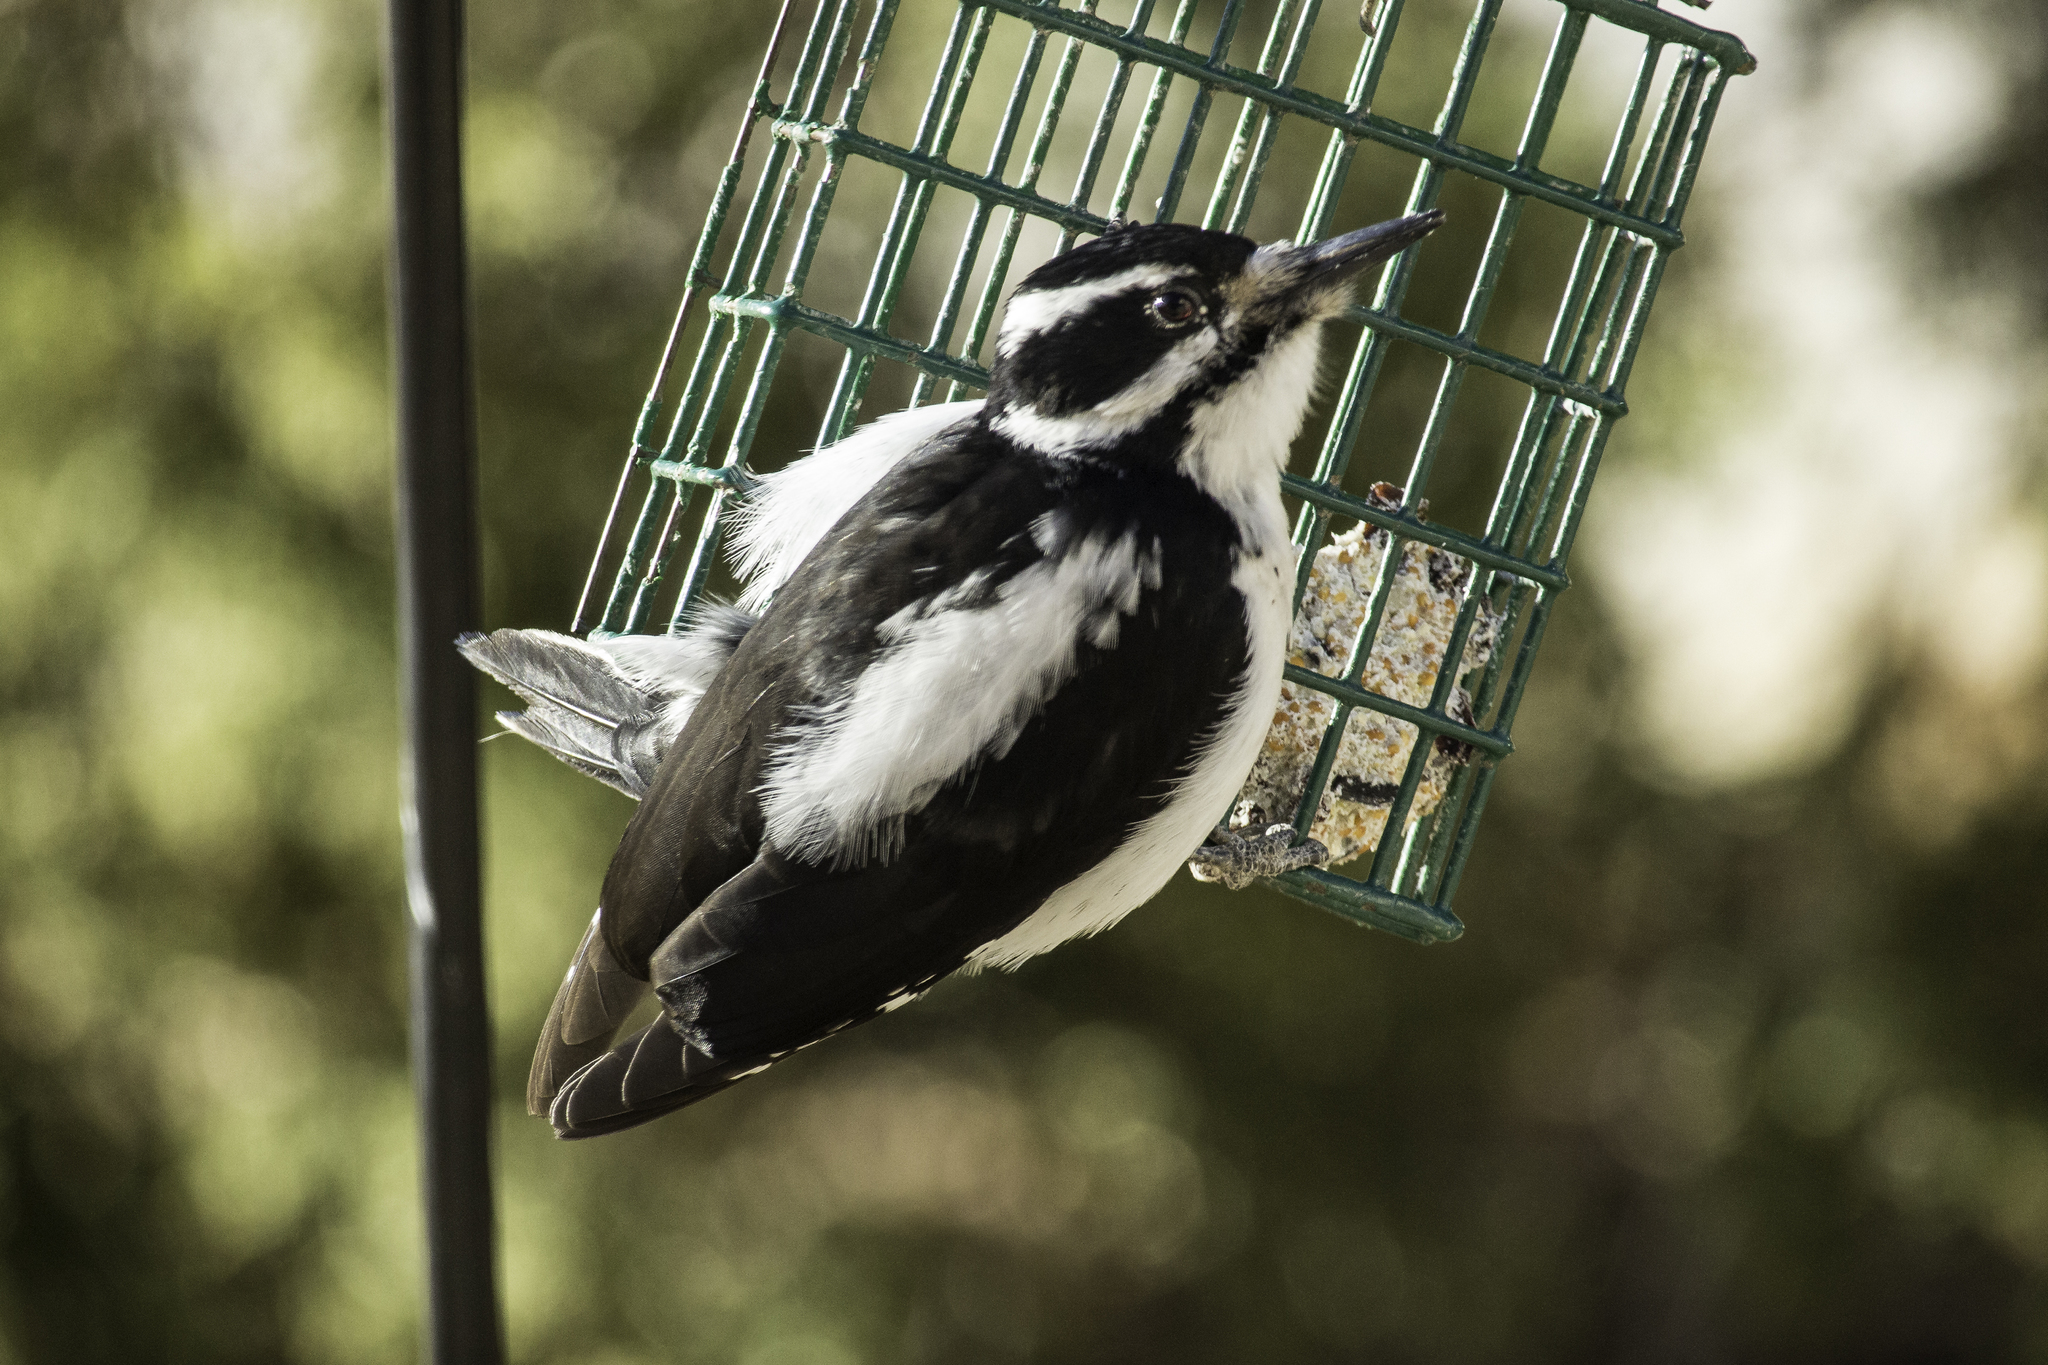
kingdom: Animalia
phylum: Chordata
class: Aves
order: Piciformes
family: Picidae
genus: Leuconotopicus
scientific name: Leuconotopicus villosus
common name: Hairy woodpecker
